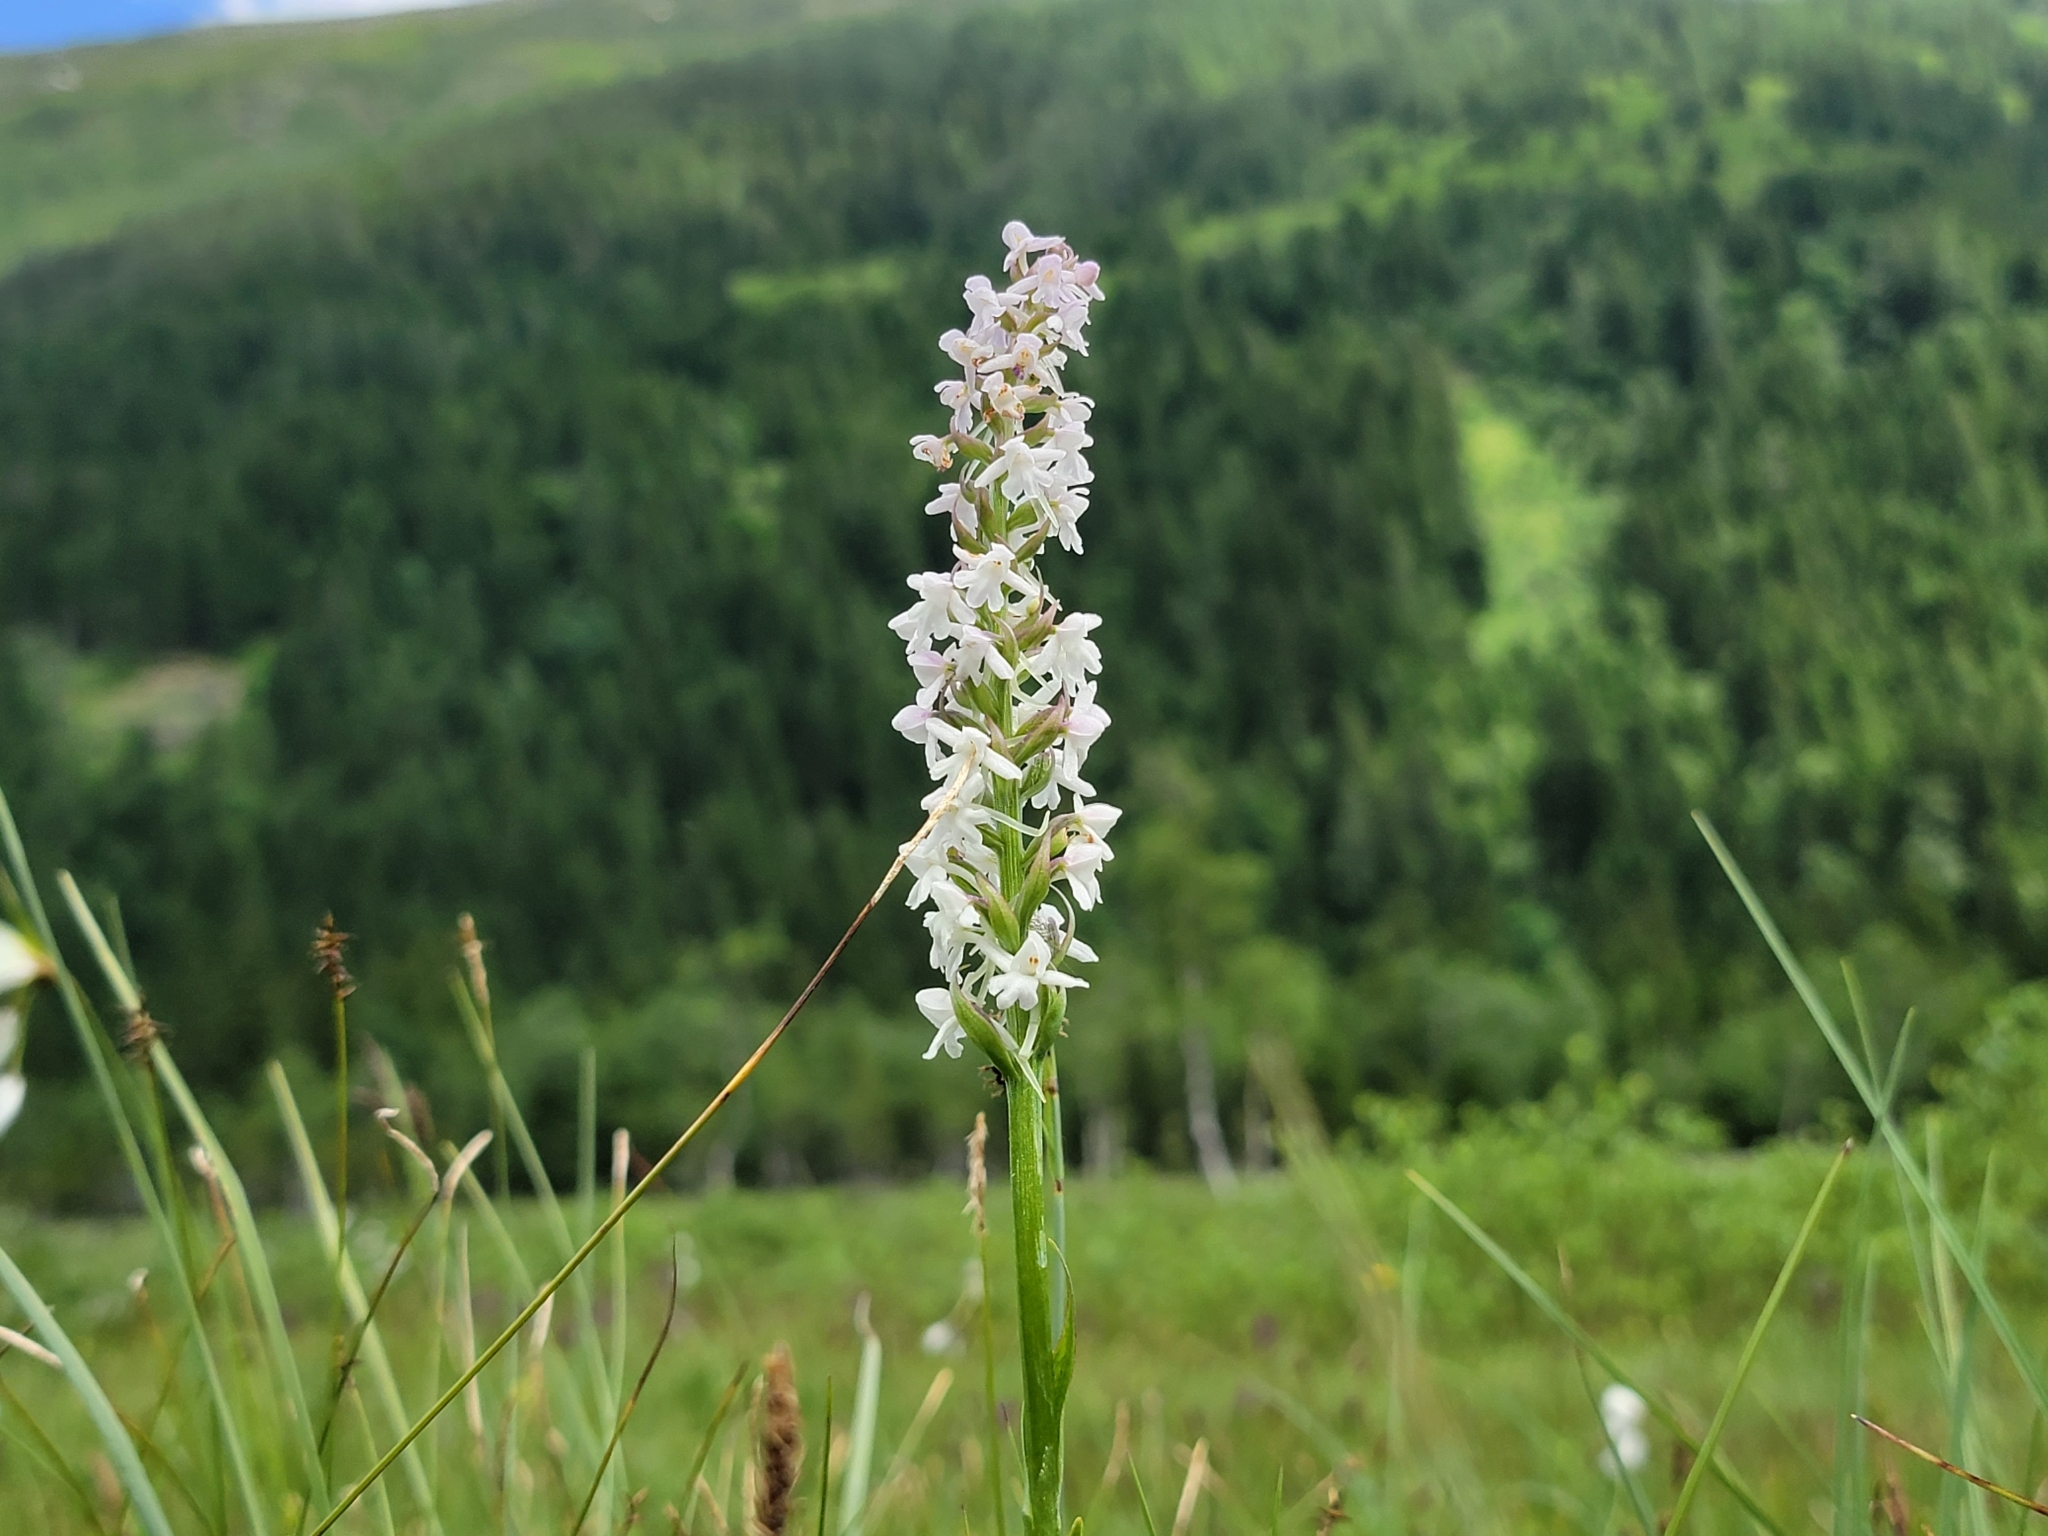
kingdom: Plantae
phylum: Tracheophyta
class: Liliopsida
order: Asparagales
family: Orchidaceae
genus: Gymnadenia
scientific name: Gymnadenia conopsea
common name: Fragrant orchid
